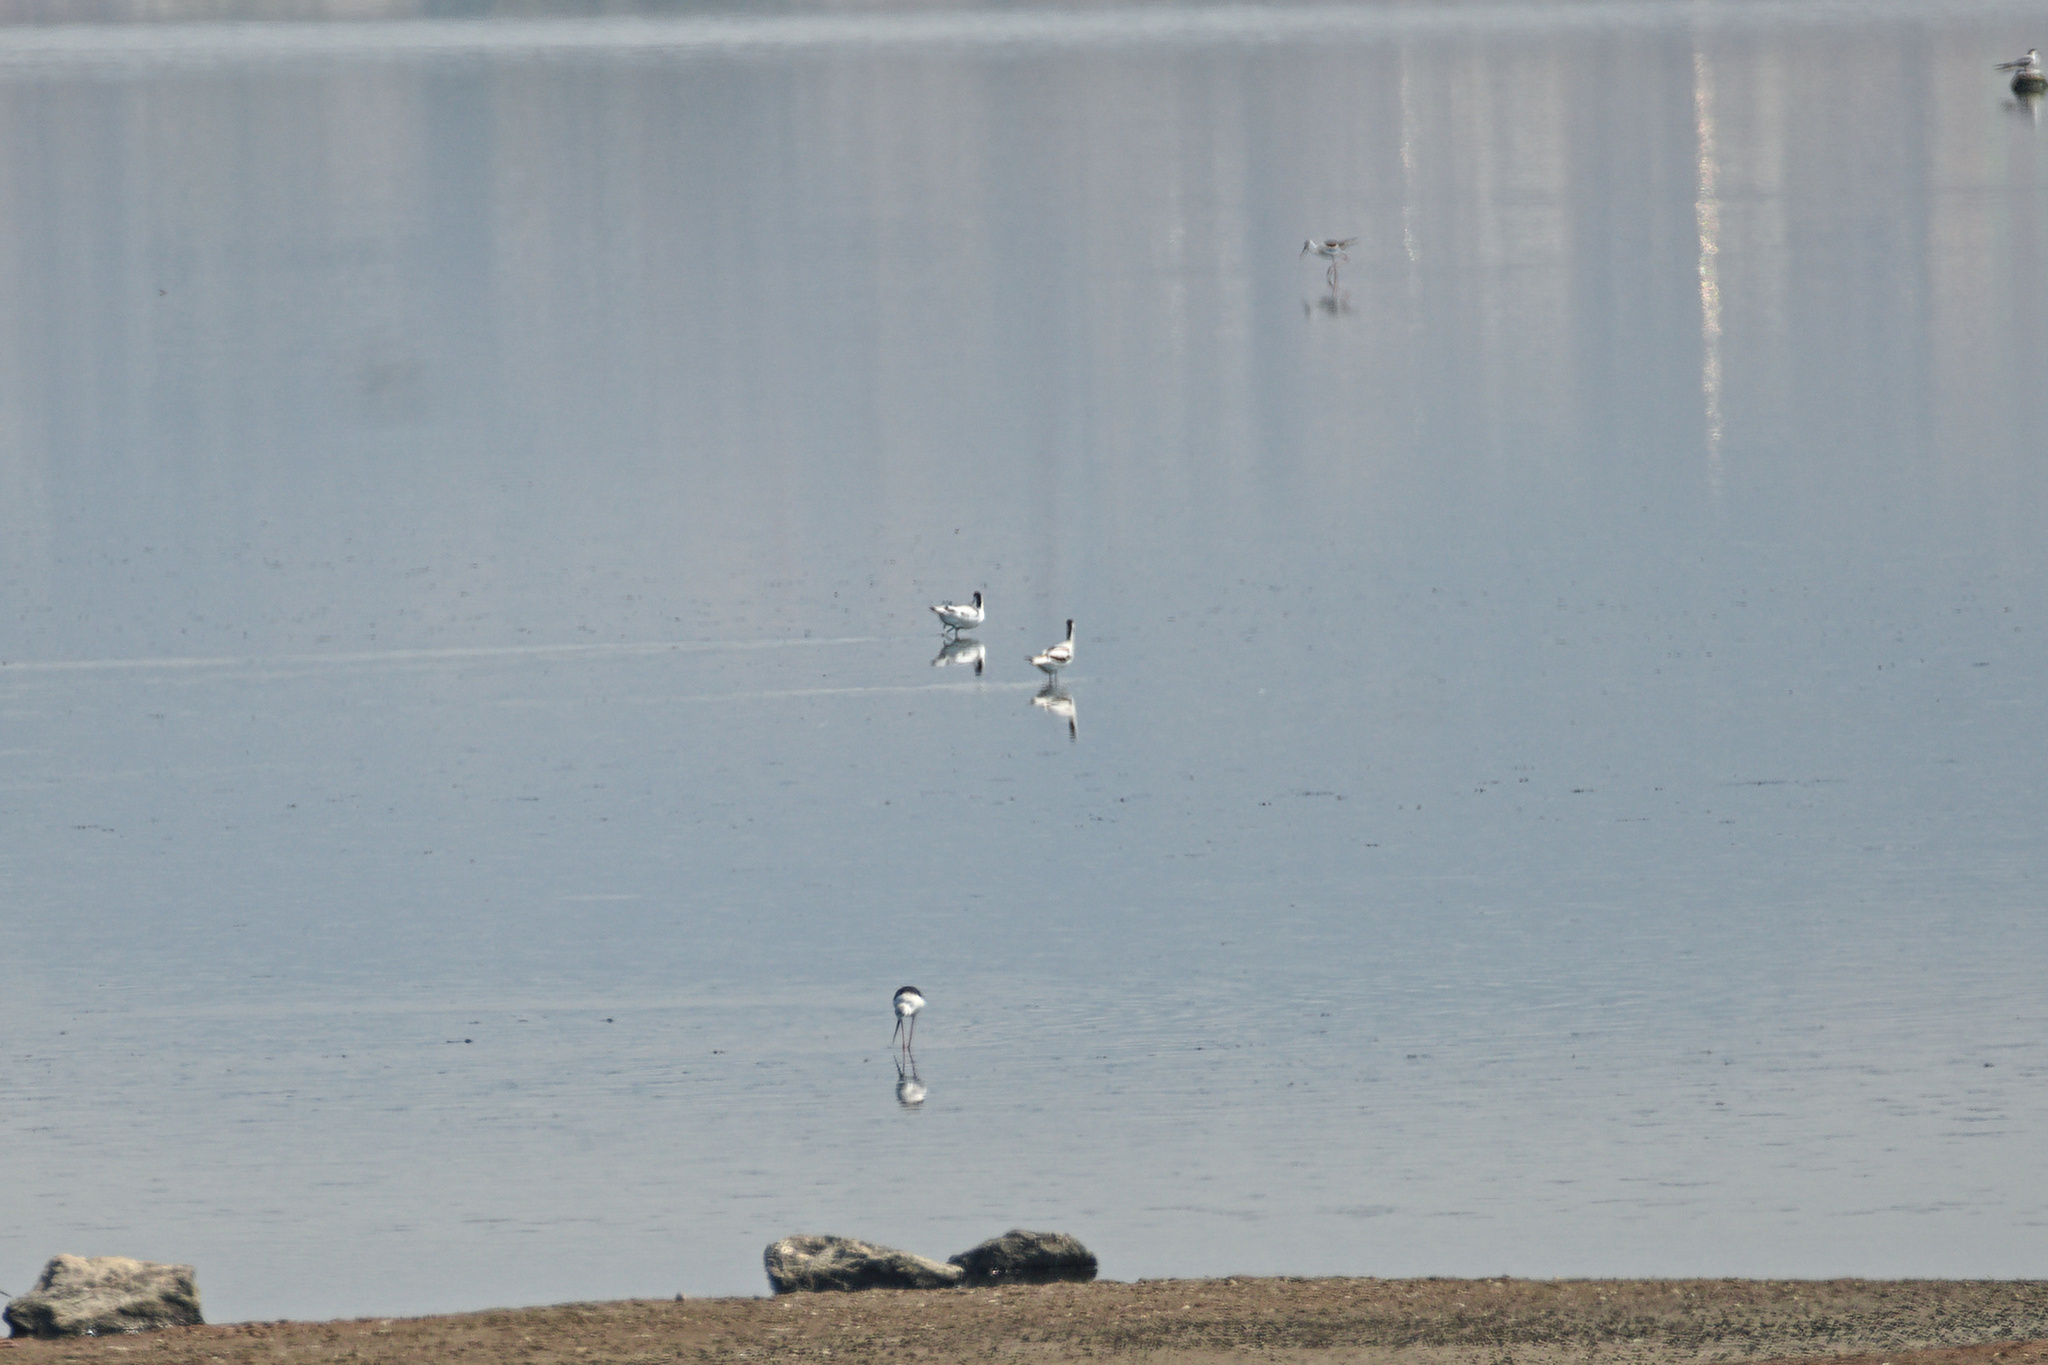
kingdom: Animalia
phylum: Chordata
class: Aves
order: Charadriiformes
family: Recurvirostridae
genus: Recurvirostra
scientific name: Recurvirostra avosetta
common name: Pied avocet
